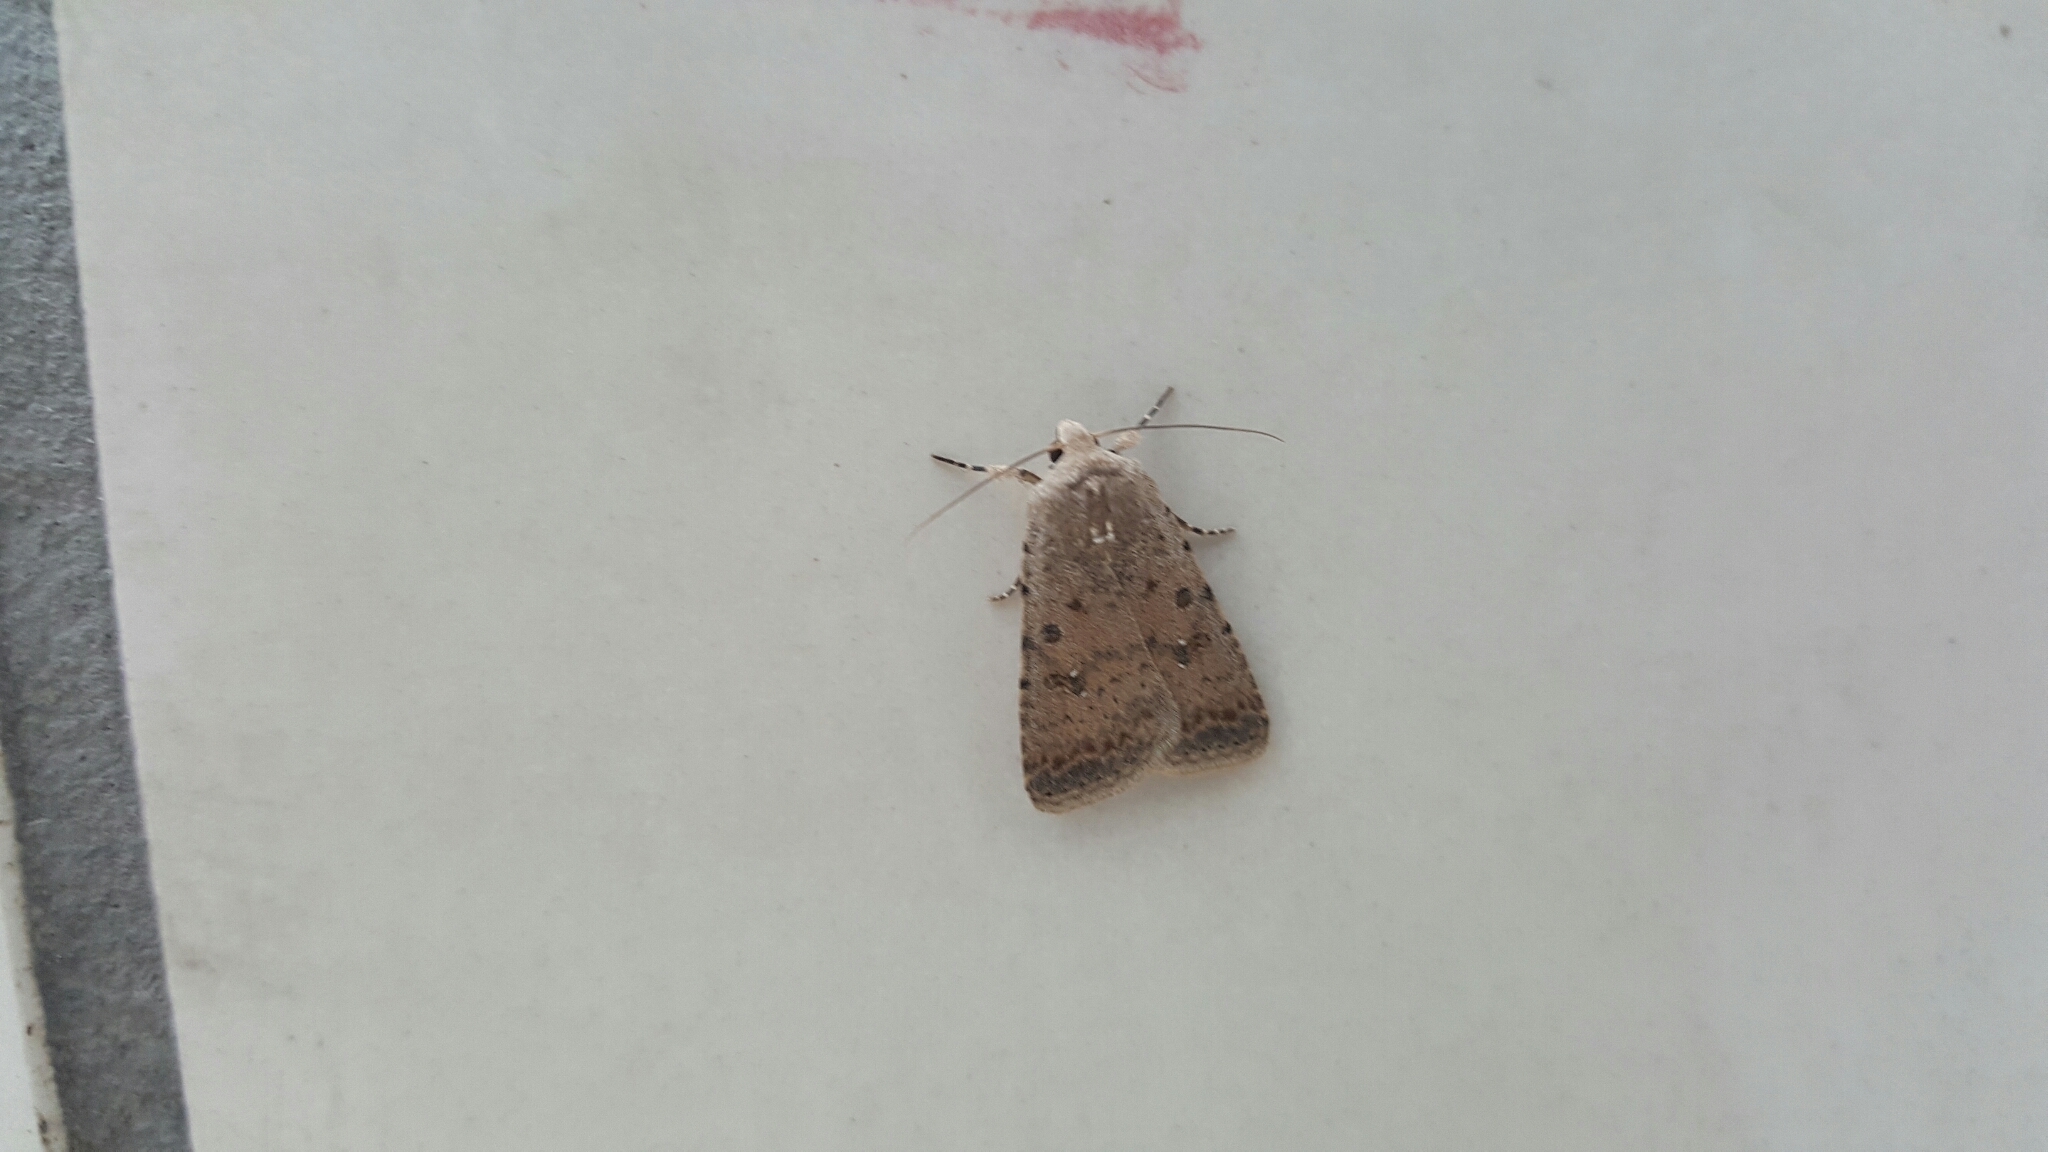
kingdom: Animalia
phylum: Arthropoda
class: Insecta
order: Lepidoptera
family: Noctuidae
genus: Caradrina
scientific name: Caradrina clavipalpis
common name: Pale mottled willow
